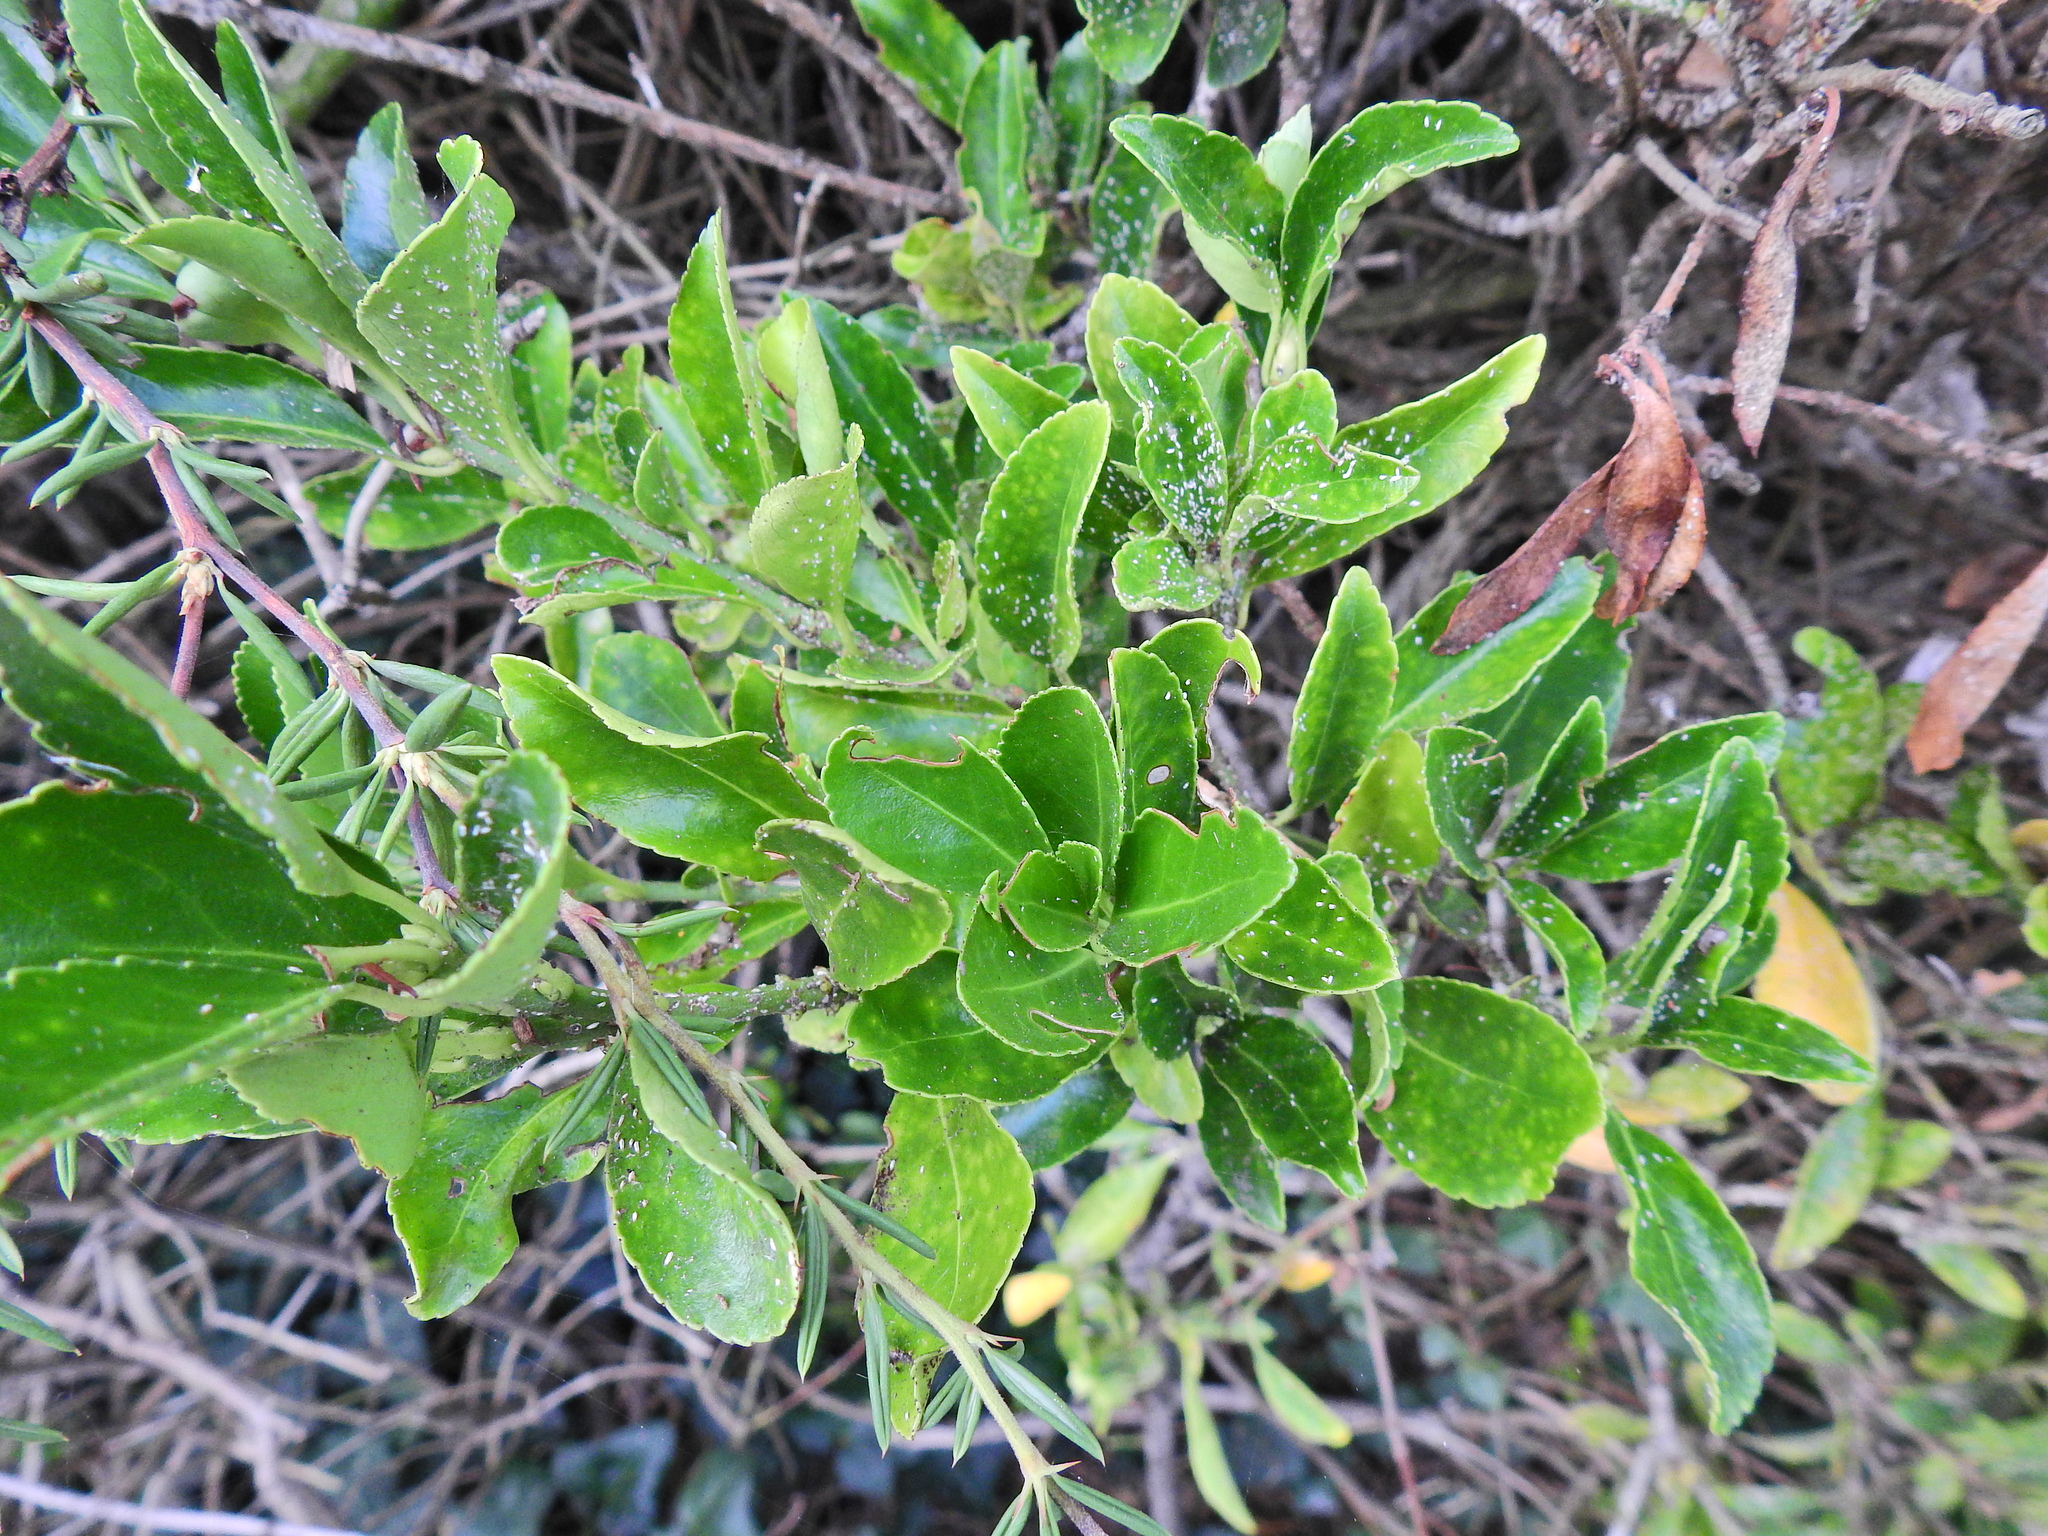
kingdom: Plantae
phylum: Tracheophyta
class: Magnoliopsida
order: Celastrales
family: Celastraceae
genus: Euonymus
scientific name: Euonymus japonicus
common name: Japanese spindletree
